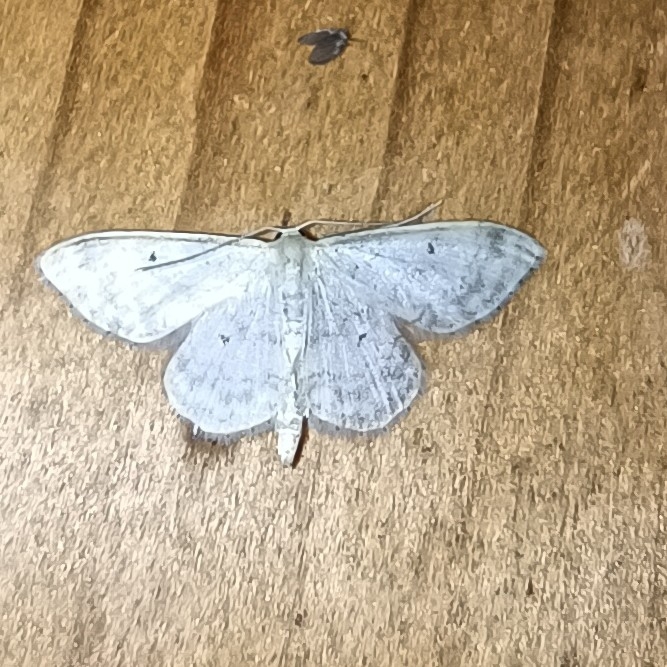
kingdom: Animalia
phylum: Arthropoda
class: Insecta
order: Lepidoptera
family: Geometridae
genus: Idaea
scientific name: Idaea biselata
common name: Small fan-footed wave
